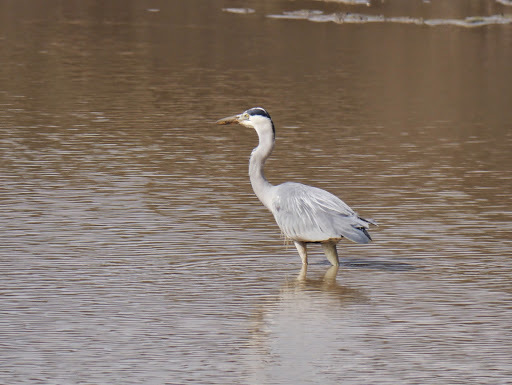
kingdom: Animalia
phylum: Chordata
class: Aves
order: Pelecaniformes
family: Ardeidae
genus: Ardea
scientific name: Ardea cinerea
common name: Grey heron
